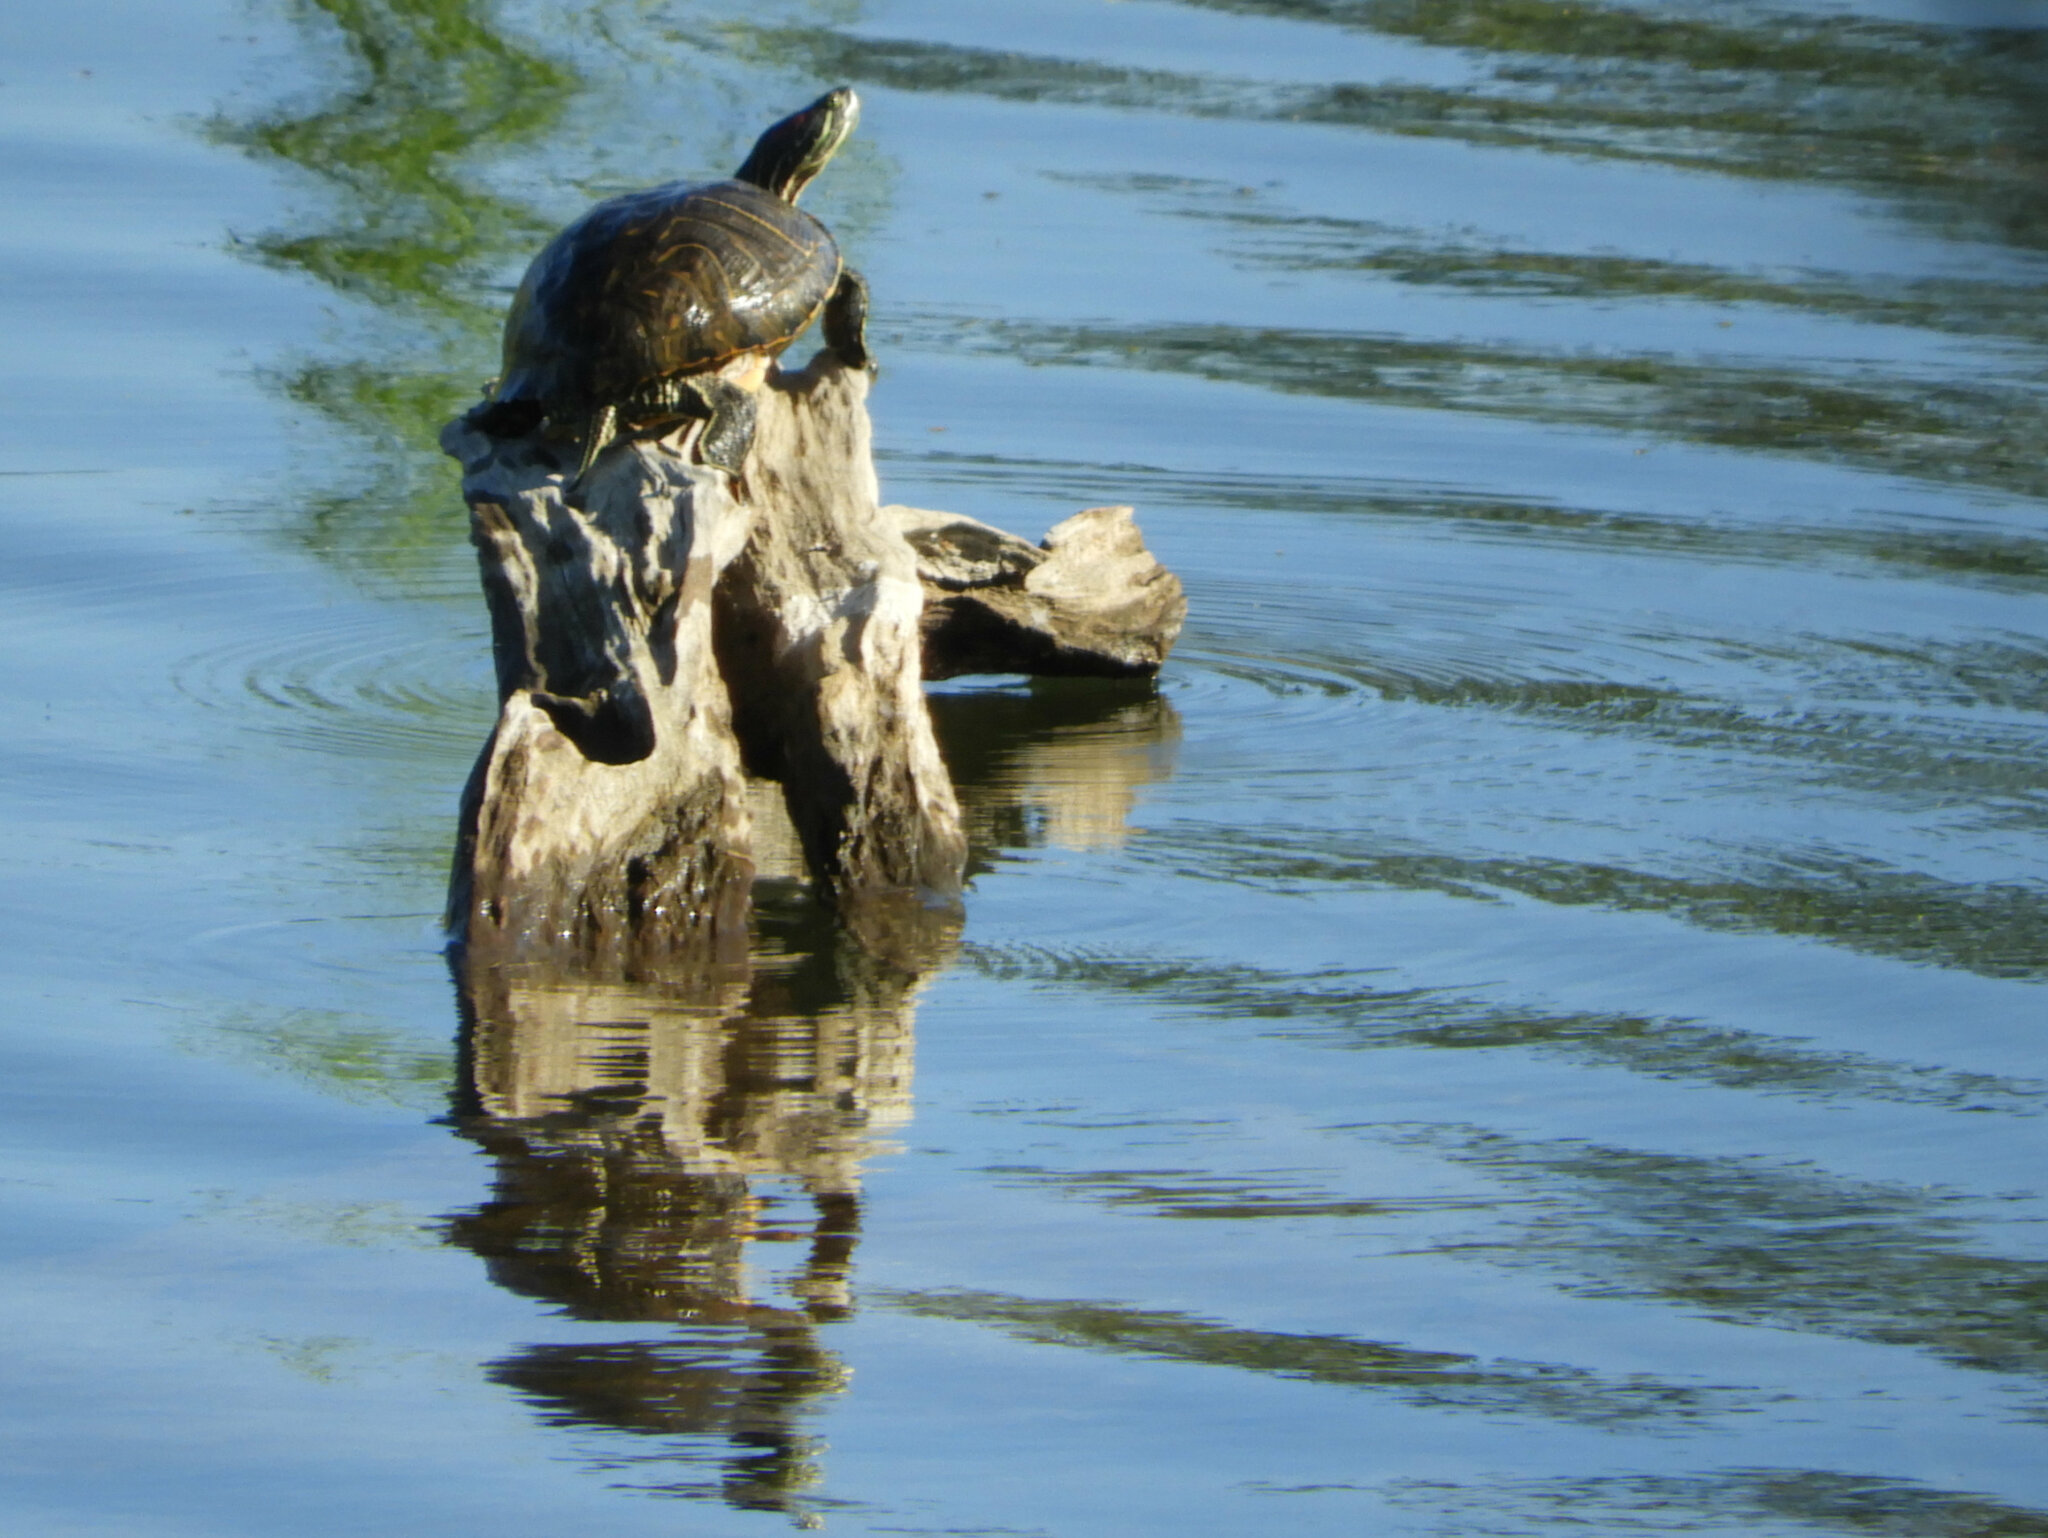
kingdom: Animalia
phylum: Chordata
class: Testudines
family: Emydidae
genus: Trachemys
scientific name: Trachemys scripta
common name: Slider
